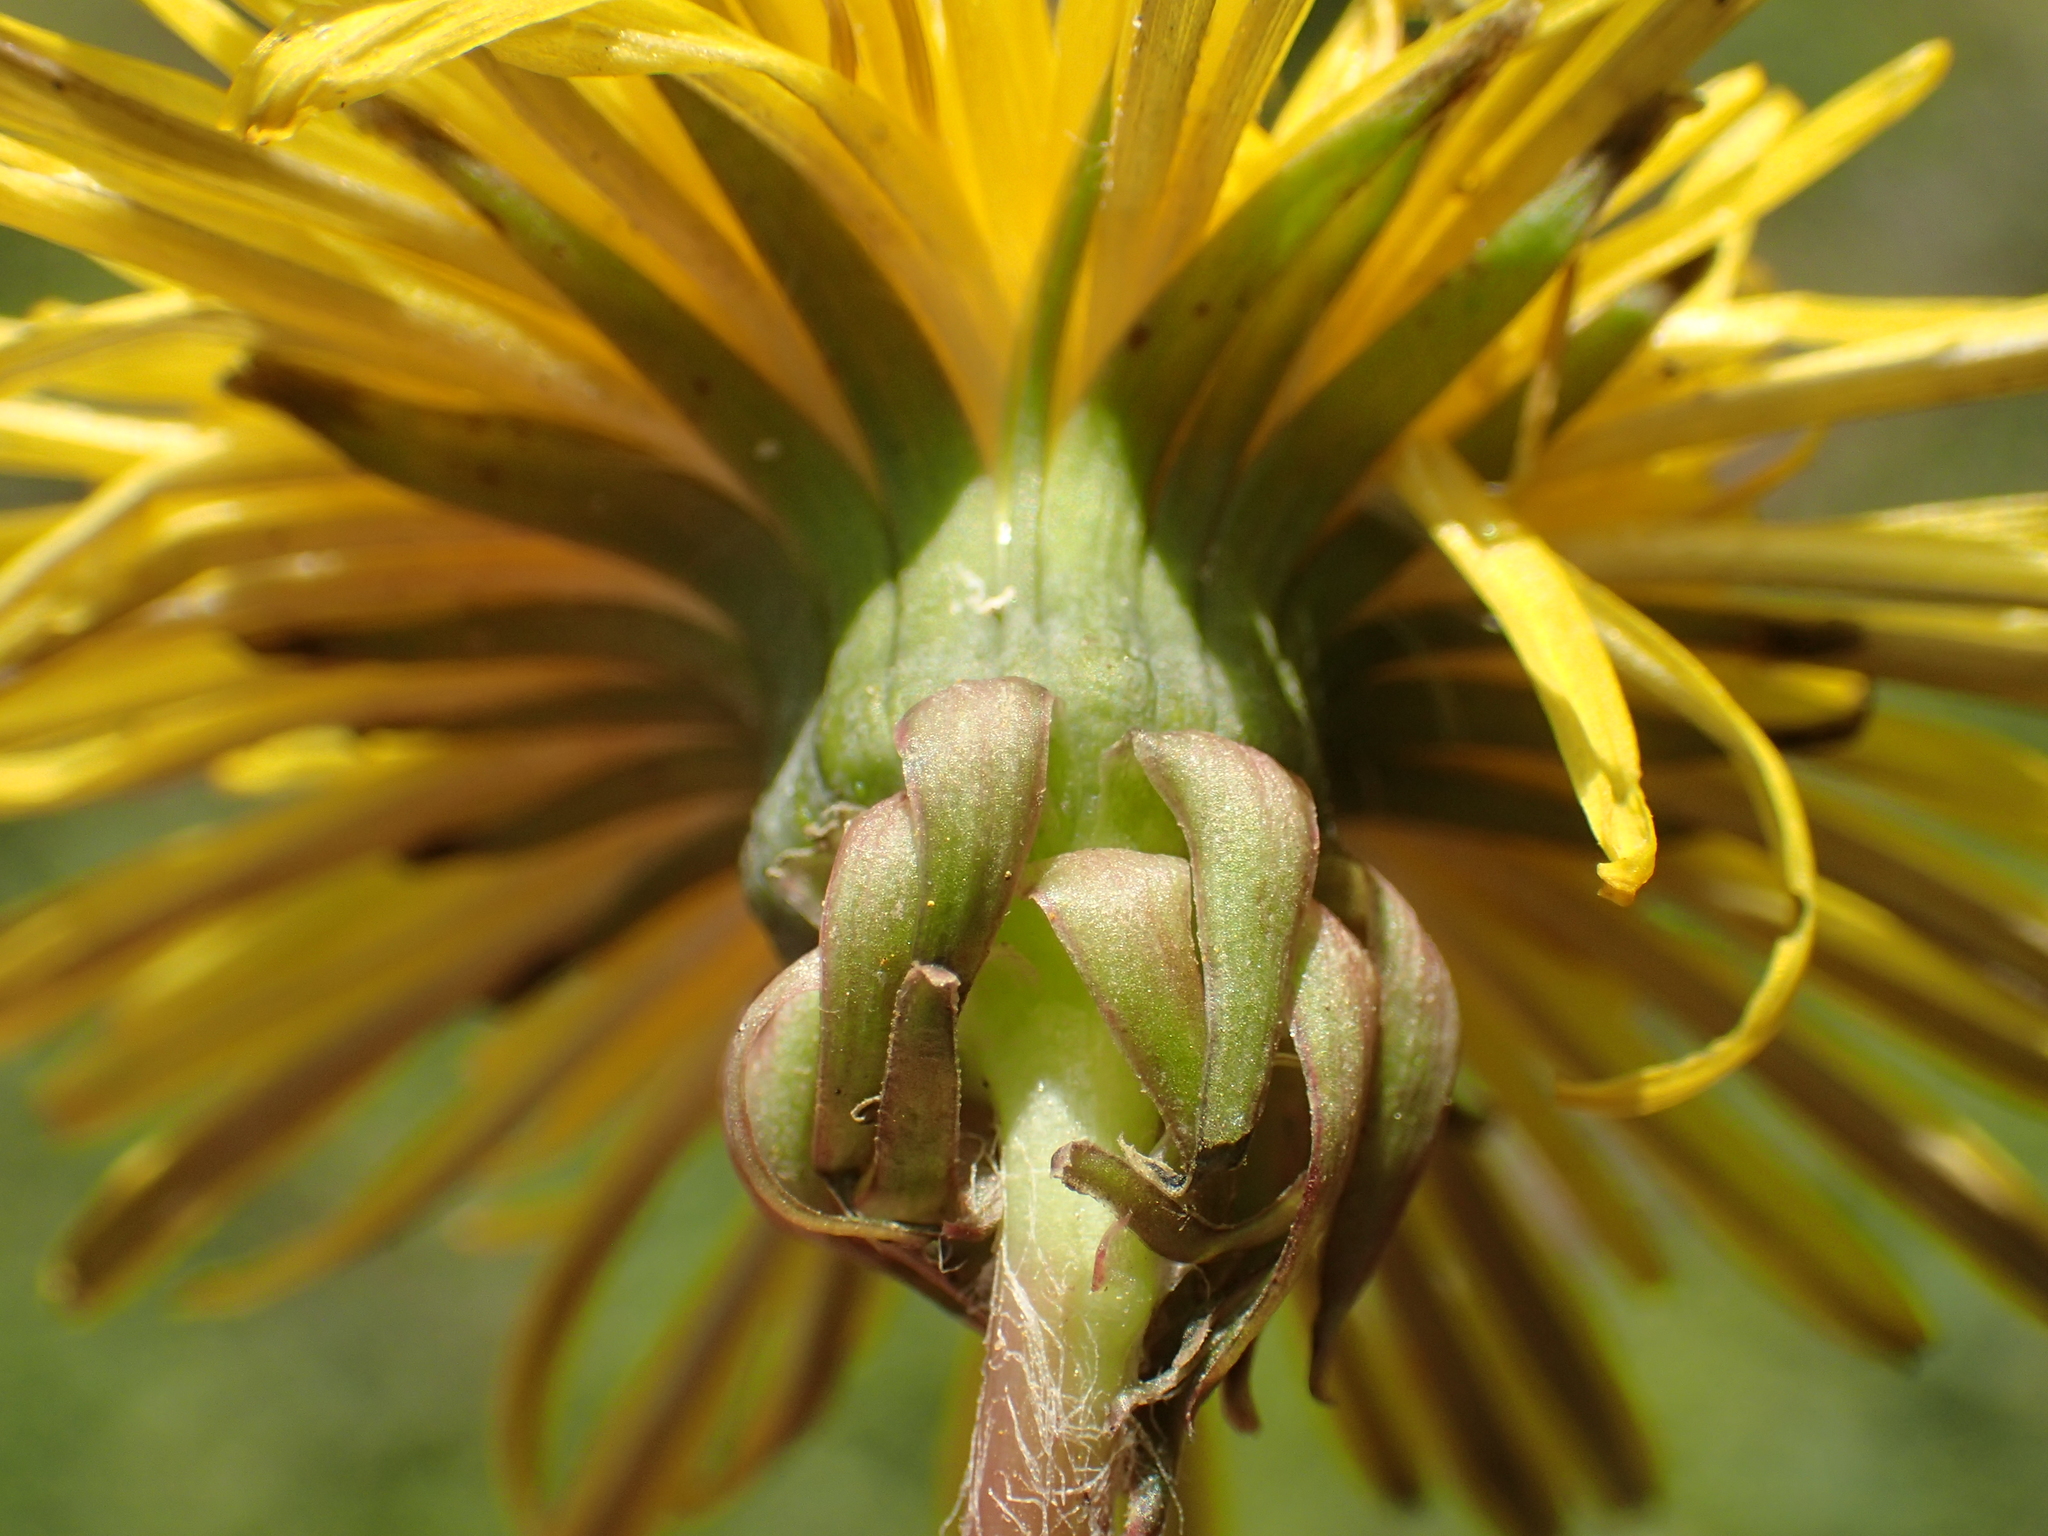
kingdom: Plantae
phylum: Tracheophyta
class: Magnoliopsida
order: Asterales
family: Asteraceae
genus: Taraxacum
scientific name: Taraxacum officinale
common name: Common dandelion
